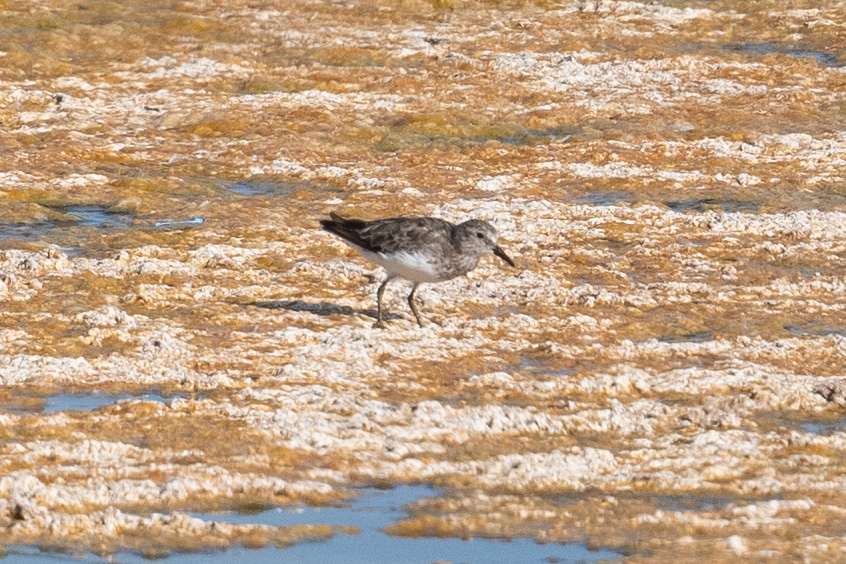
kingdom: Animalia
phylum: Chordata
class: Aves
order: Charadriiformes
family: Scolopacidae
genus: Calidris
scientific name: Calidris minutilla
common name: Least sandpiper
